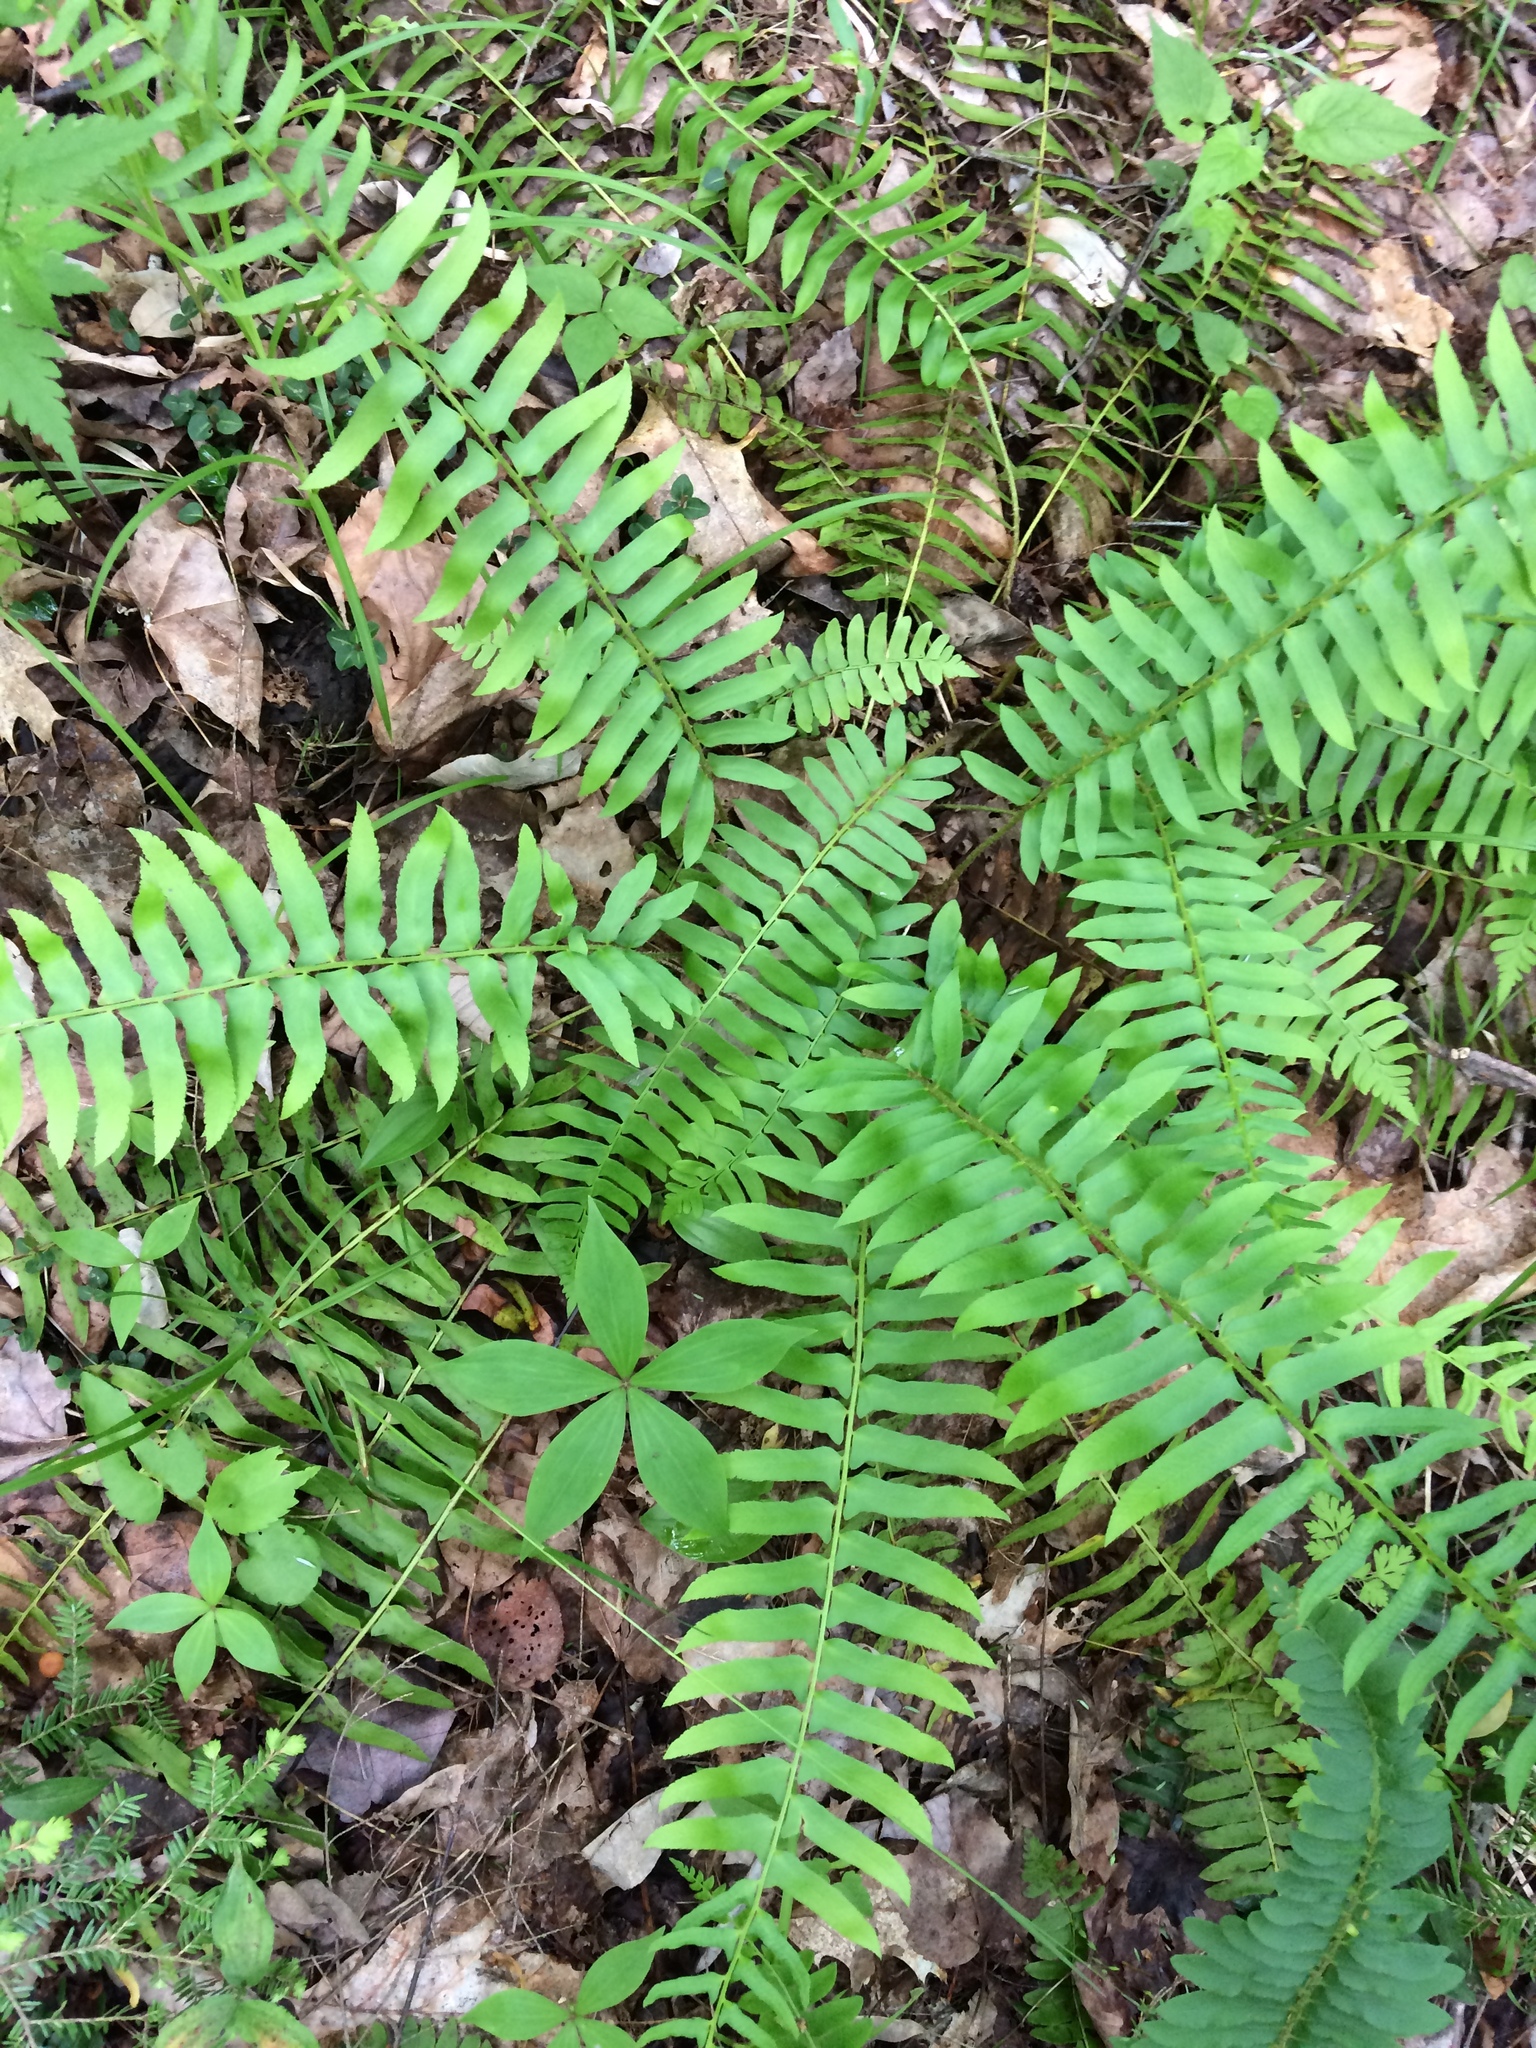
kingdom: Plantae
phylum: Tracheophyta
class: Polypodiopsida
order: Polypodiales
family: Dryopteridaceae
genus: Polystichum
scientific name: Polystichum acrostichoides
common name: Christmas fern
